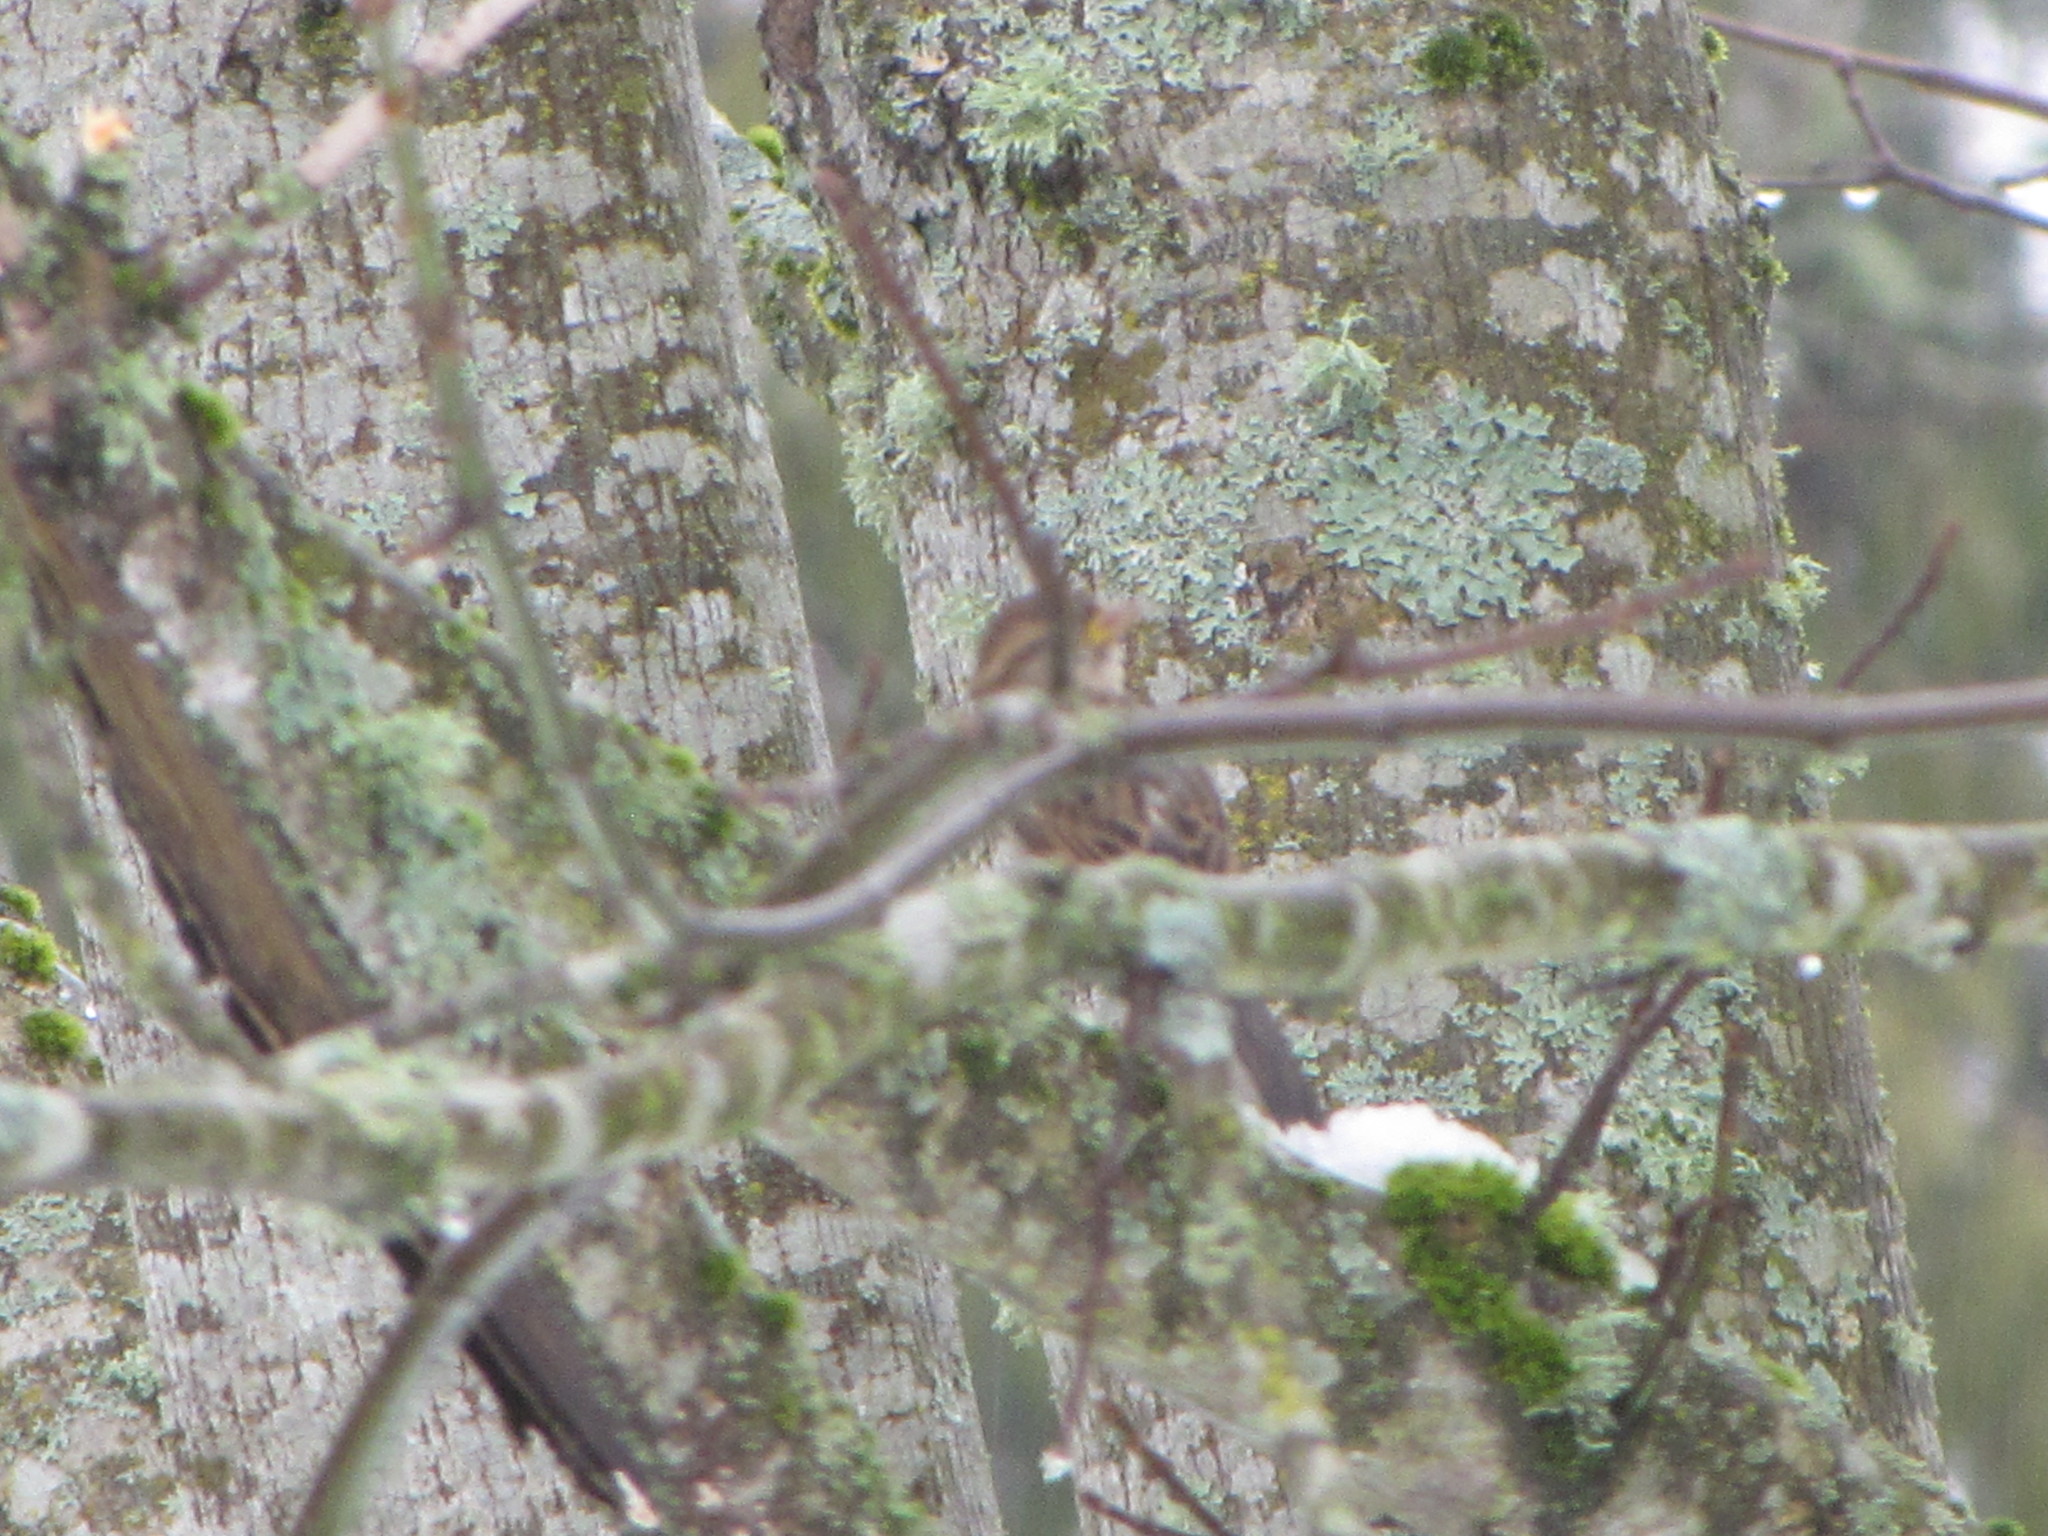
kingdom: Animalia
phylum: Chordata
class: Aves
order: Passeriformes
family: Passeridae
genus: Passer
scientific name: Passer domesticus
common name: House sparrow
